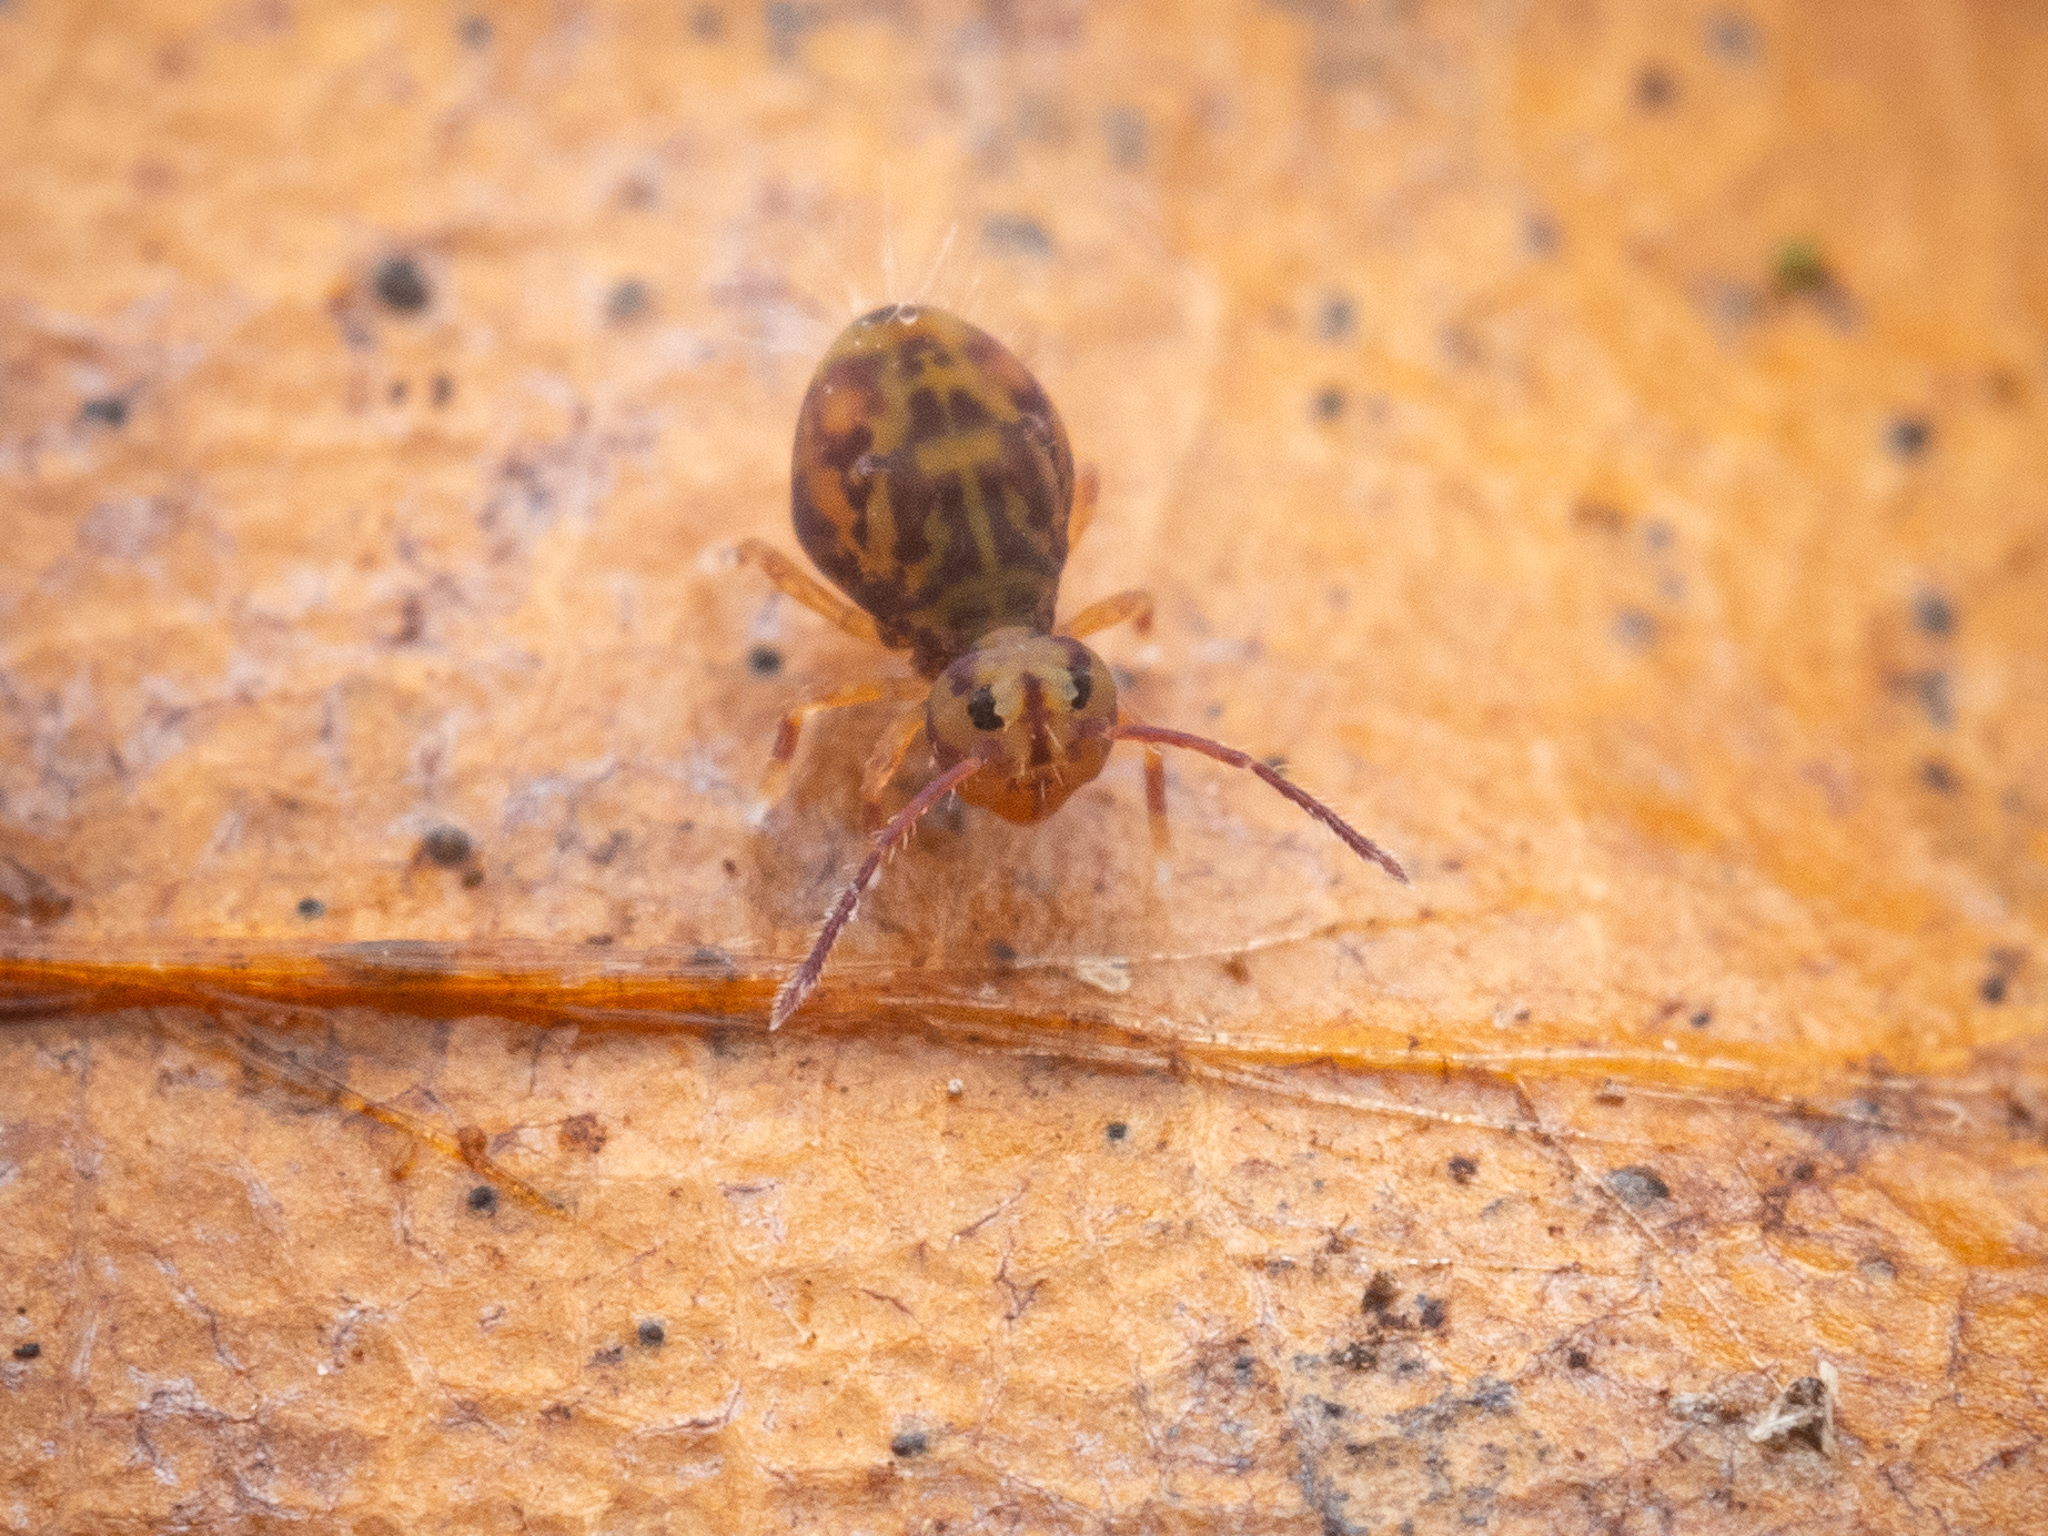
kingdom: Animalia
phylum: Arthropoda
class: Collembola
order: Symphypleona
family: Dicyrtomidae
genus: Dicyrtomina
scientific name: Dicyrtomina ornata
